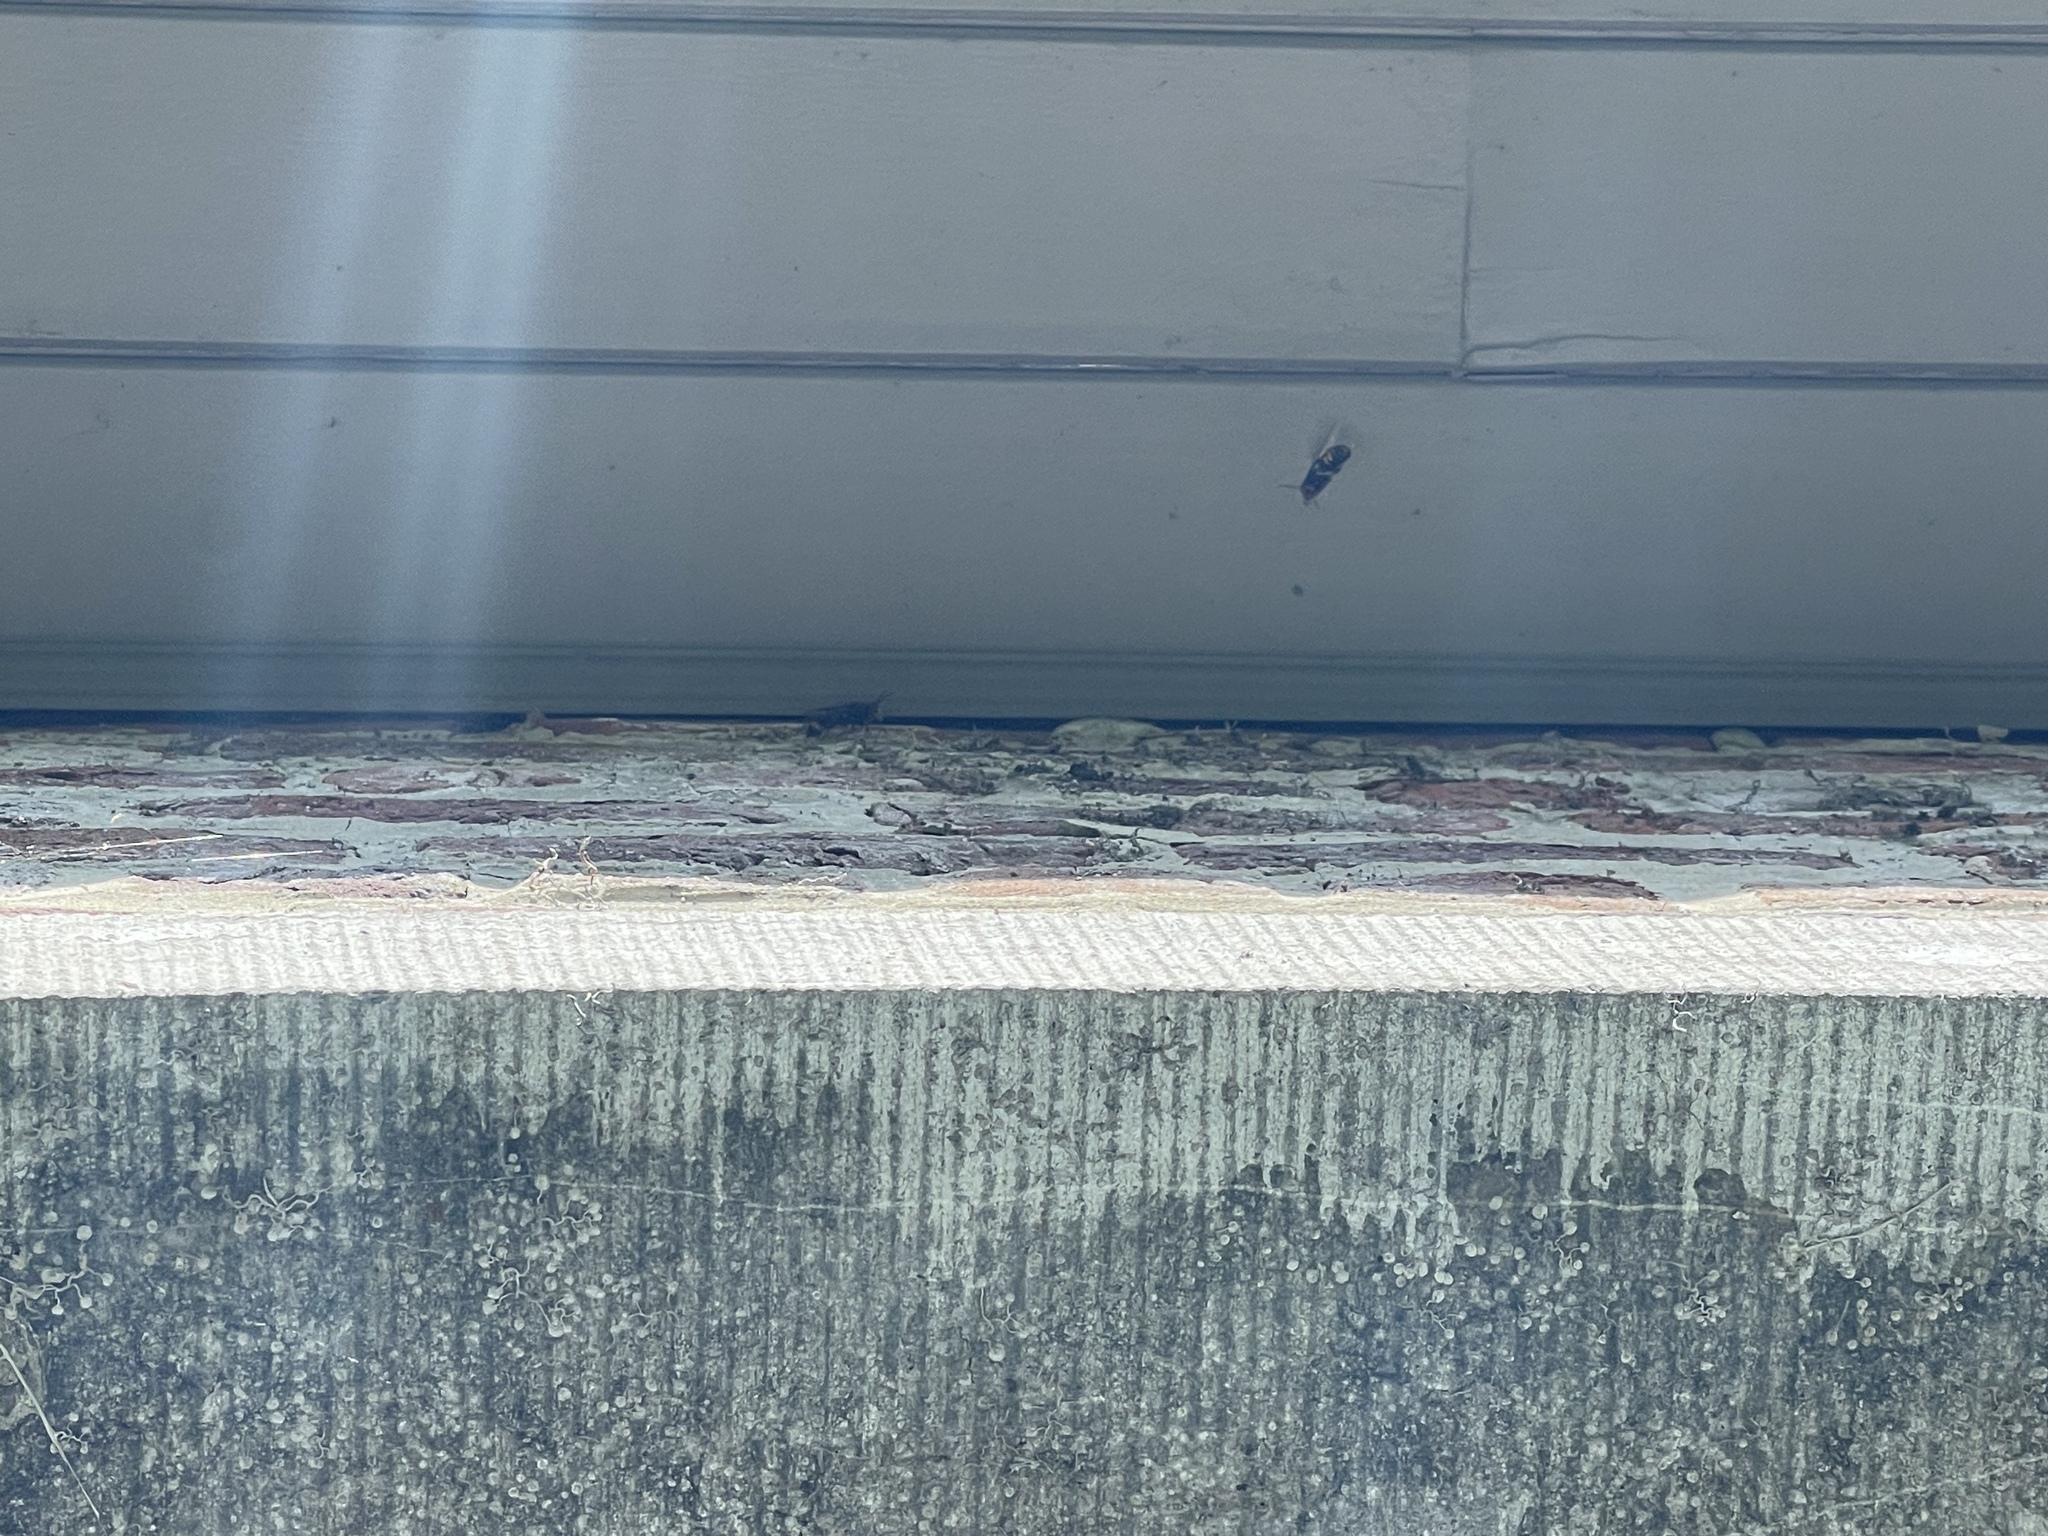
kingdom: Animalia
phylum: Arthropoda
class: Insecta
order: Hymenoptera
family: Vespidae
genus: Vespa
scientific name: Vespa velutina
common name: Asian hornet
